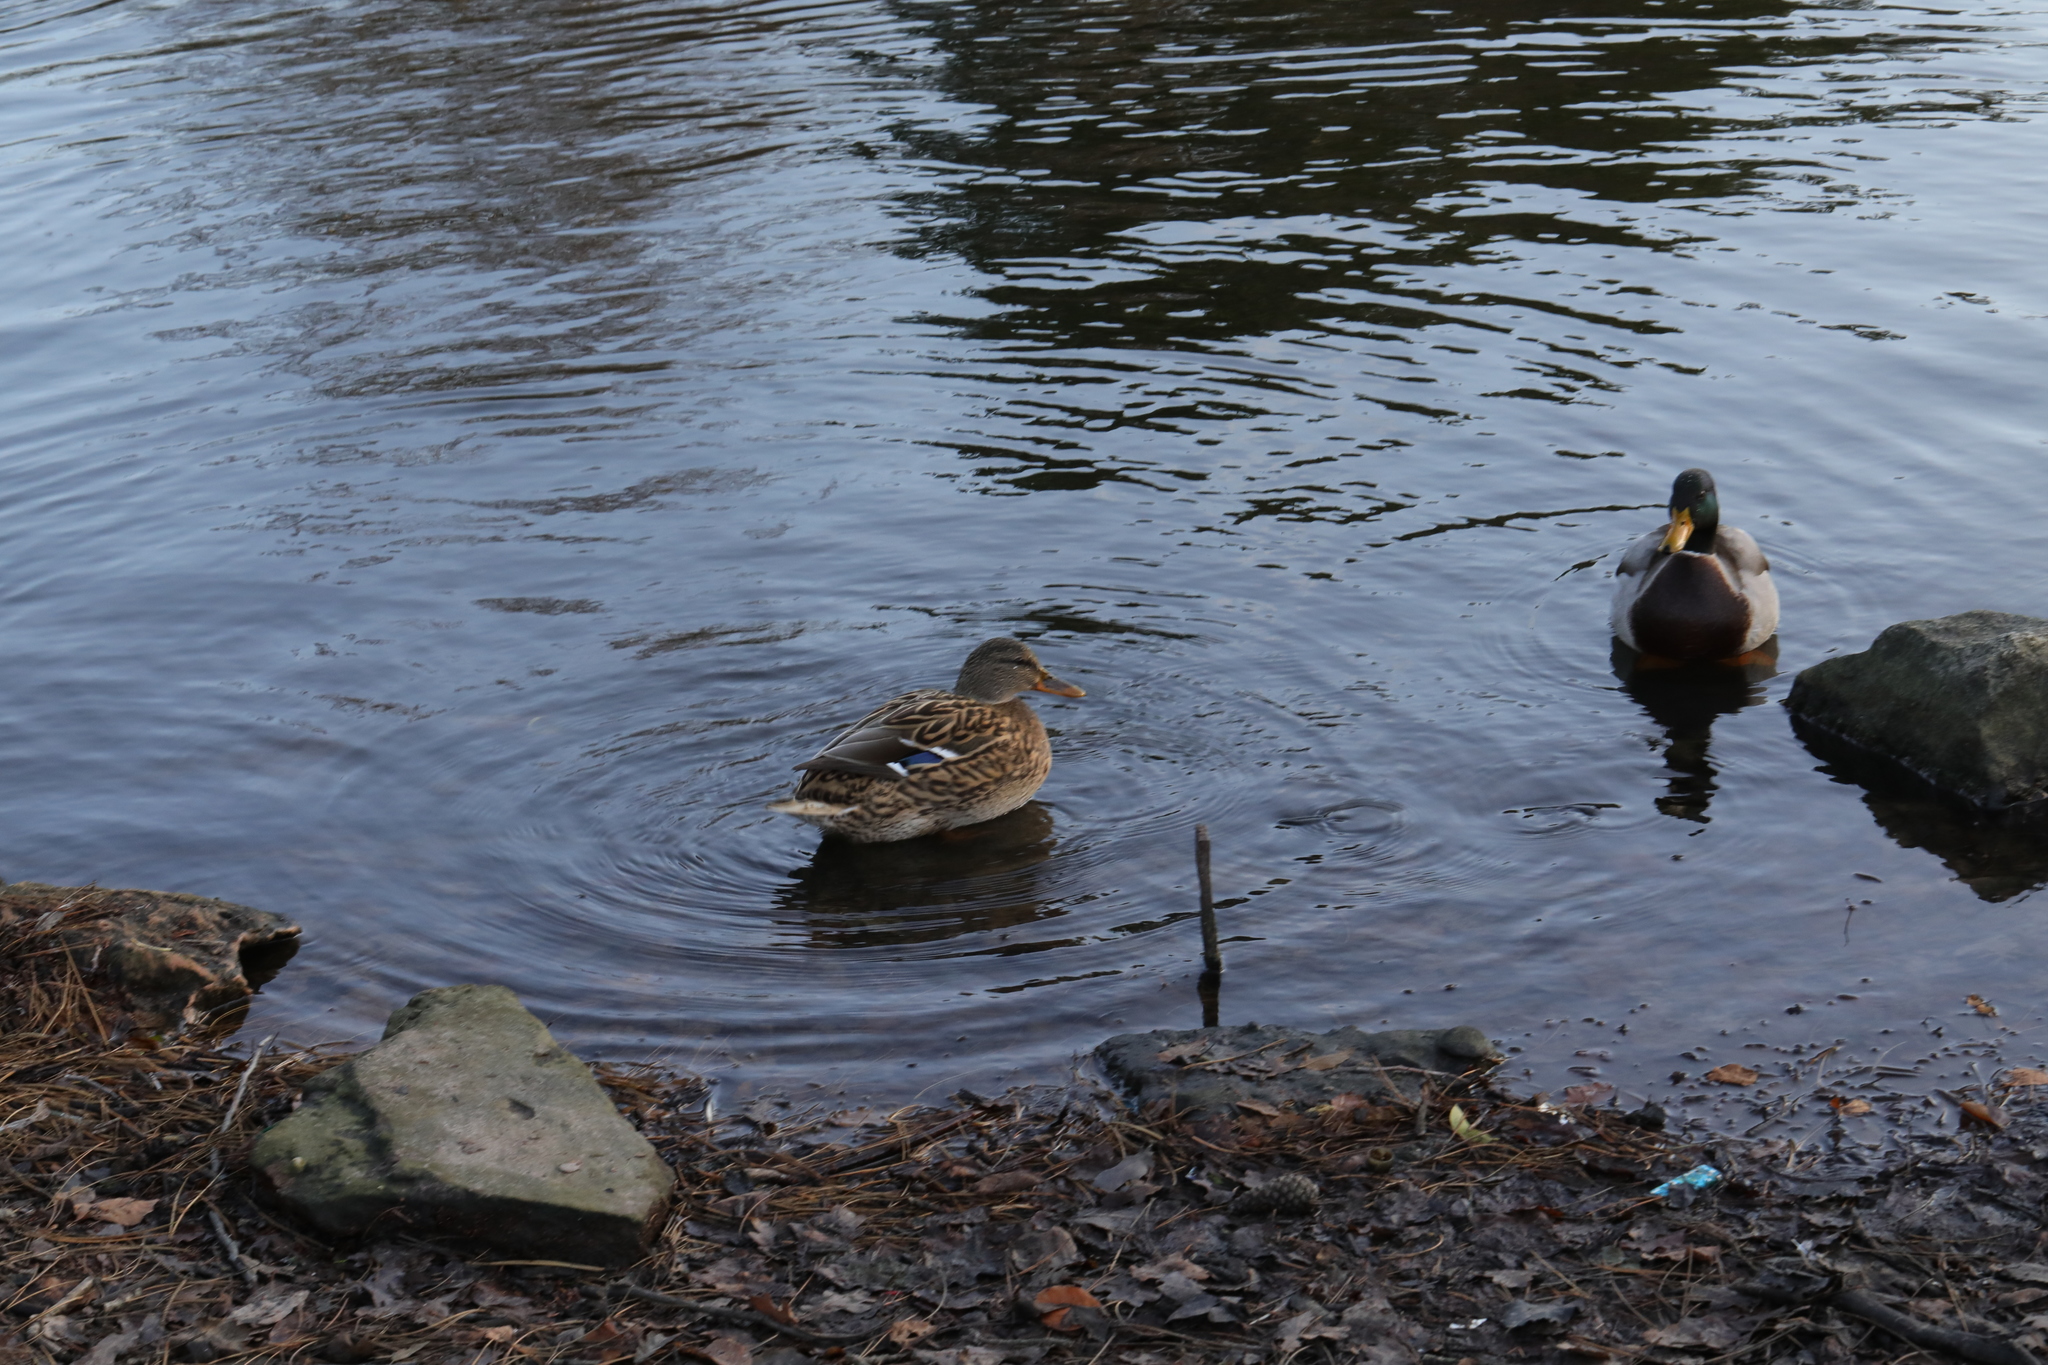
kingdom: Animalia
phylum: Chordata
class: Aves
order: Anseriformes
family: Anatidae
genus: Anas
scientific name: Anas platyrhynchos
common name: Mallard
